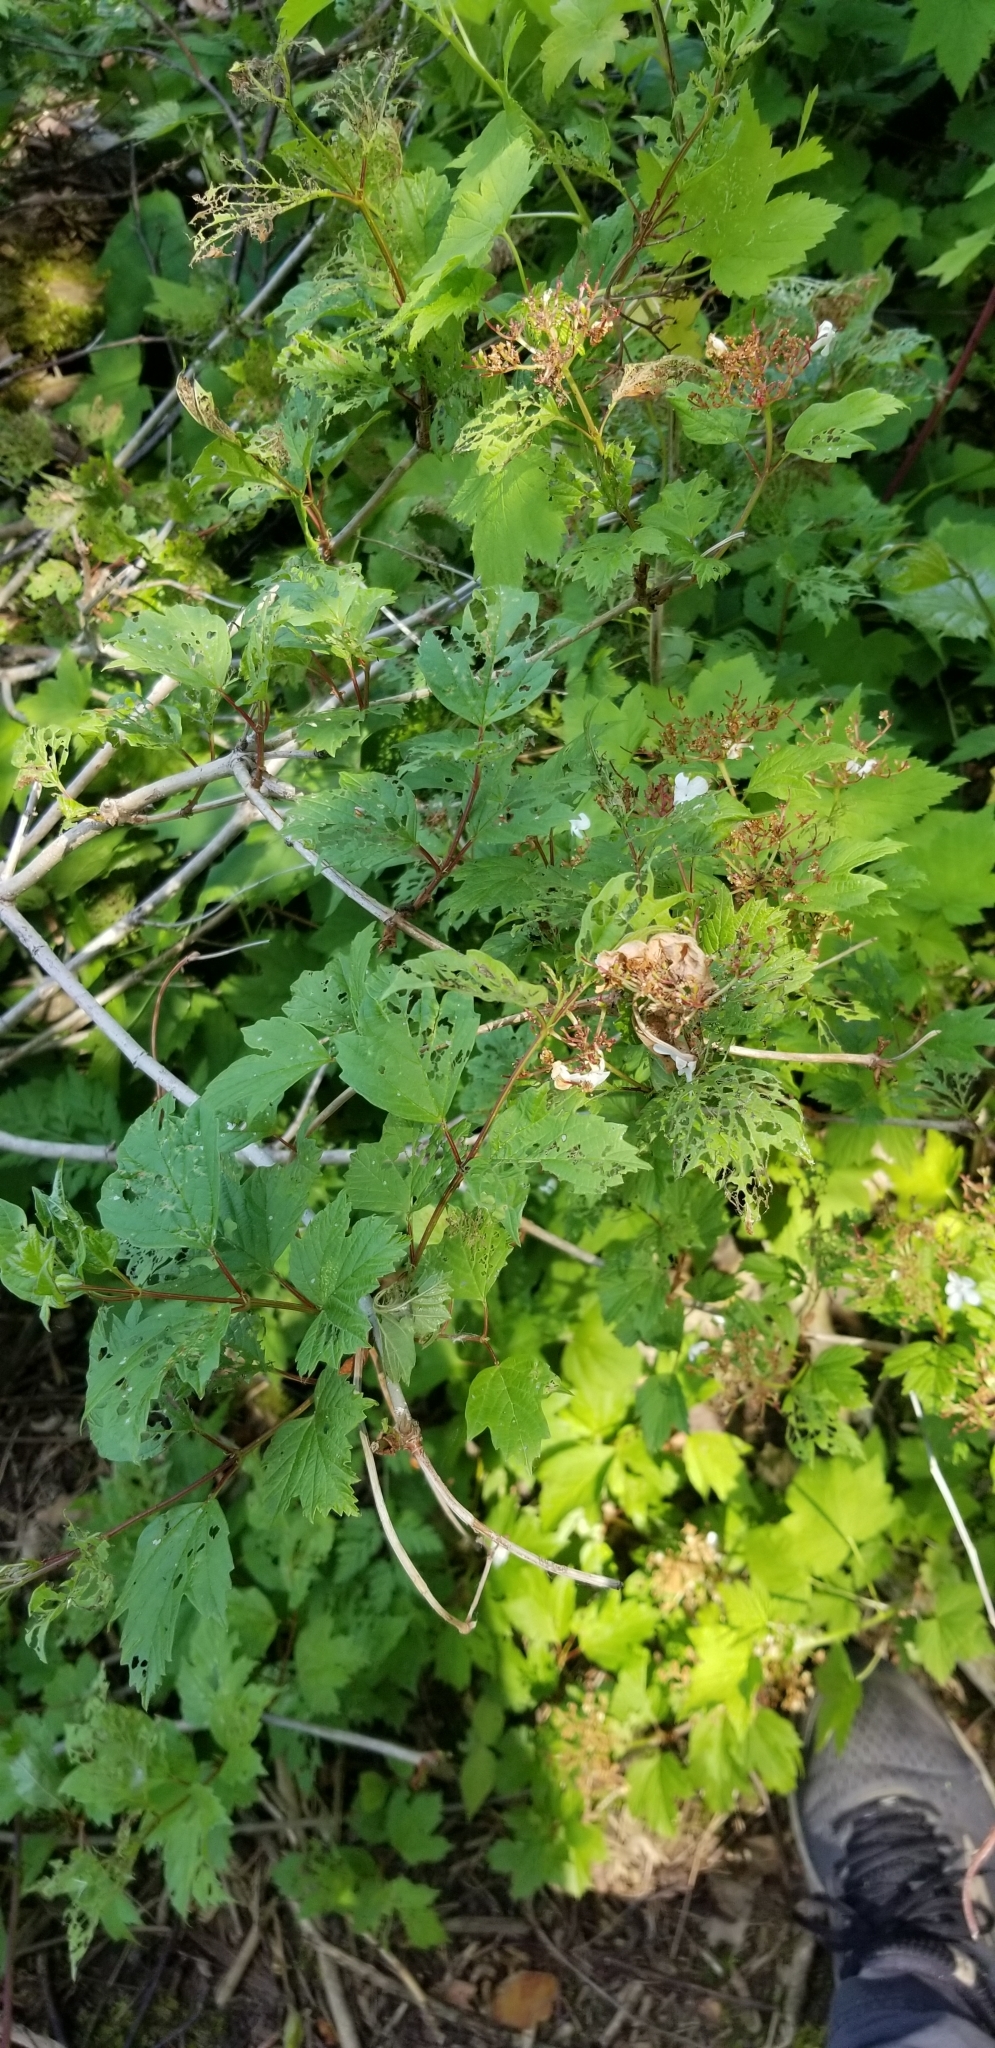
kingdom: Plantae
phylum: Tracheophyta
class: Magnoliopsida
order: Dipsacales
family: Viburnaceae
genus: Viburnum
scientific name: Viburnum opulus
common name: Guelder-rose
